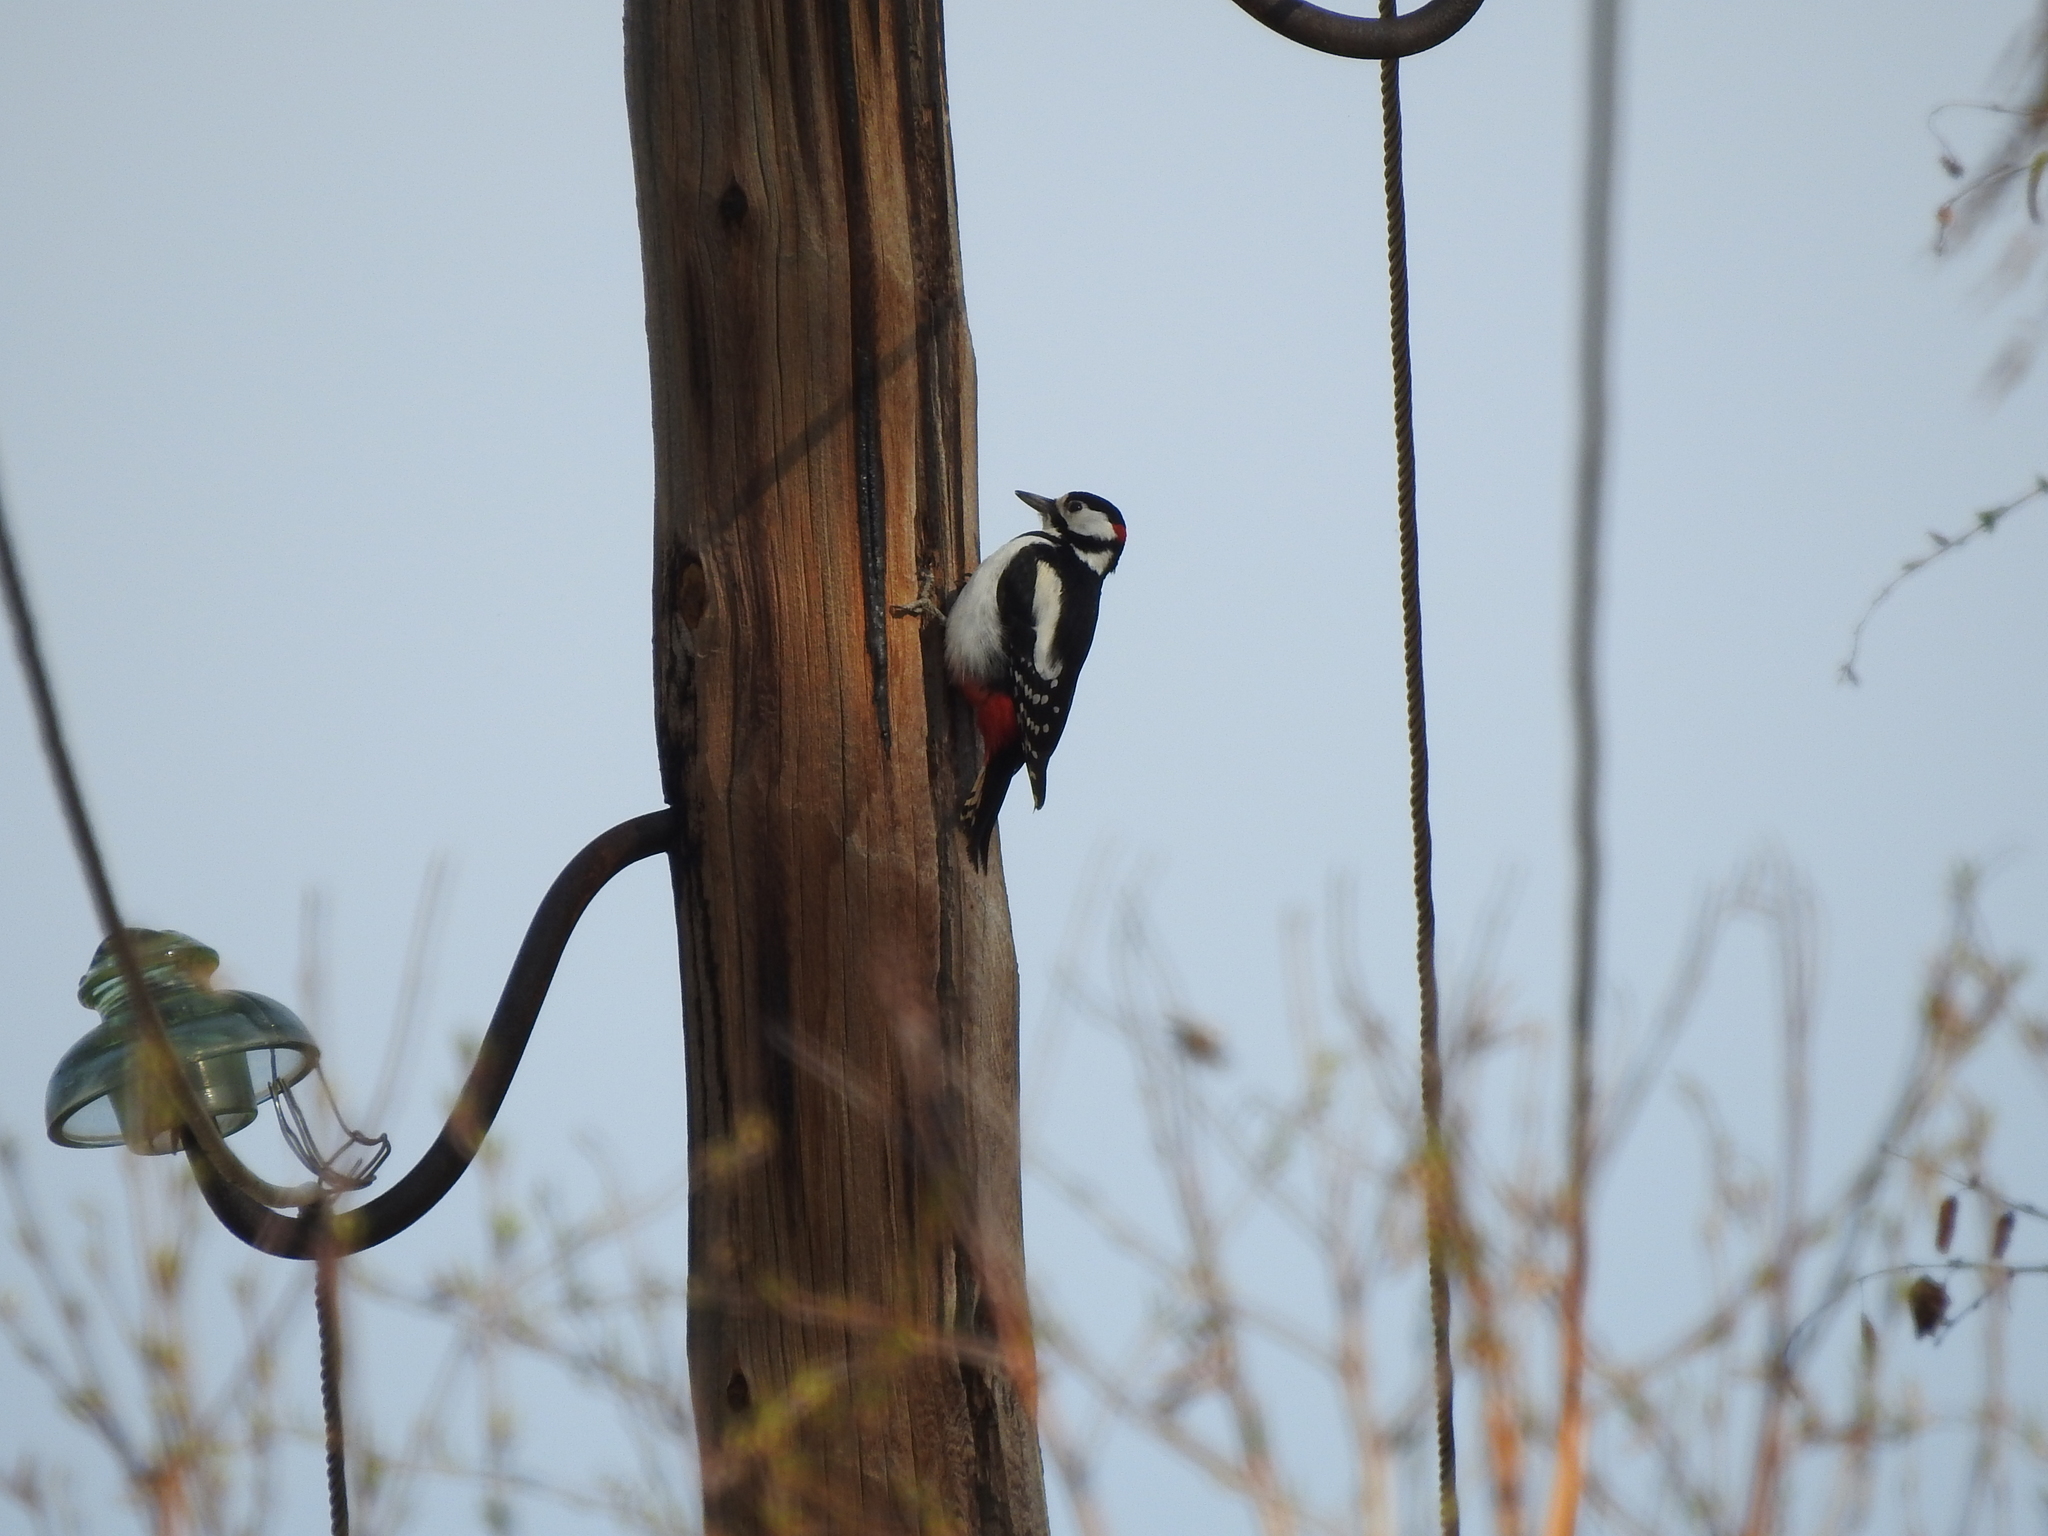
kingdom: Animalia
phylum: Chordata
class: Aves
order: Piciformes
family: Picidae
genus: Dendrocopos
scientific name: Dendrocopos major
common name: Great spotted woodpecker
